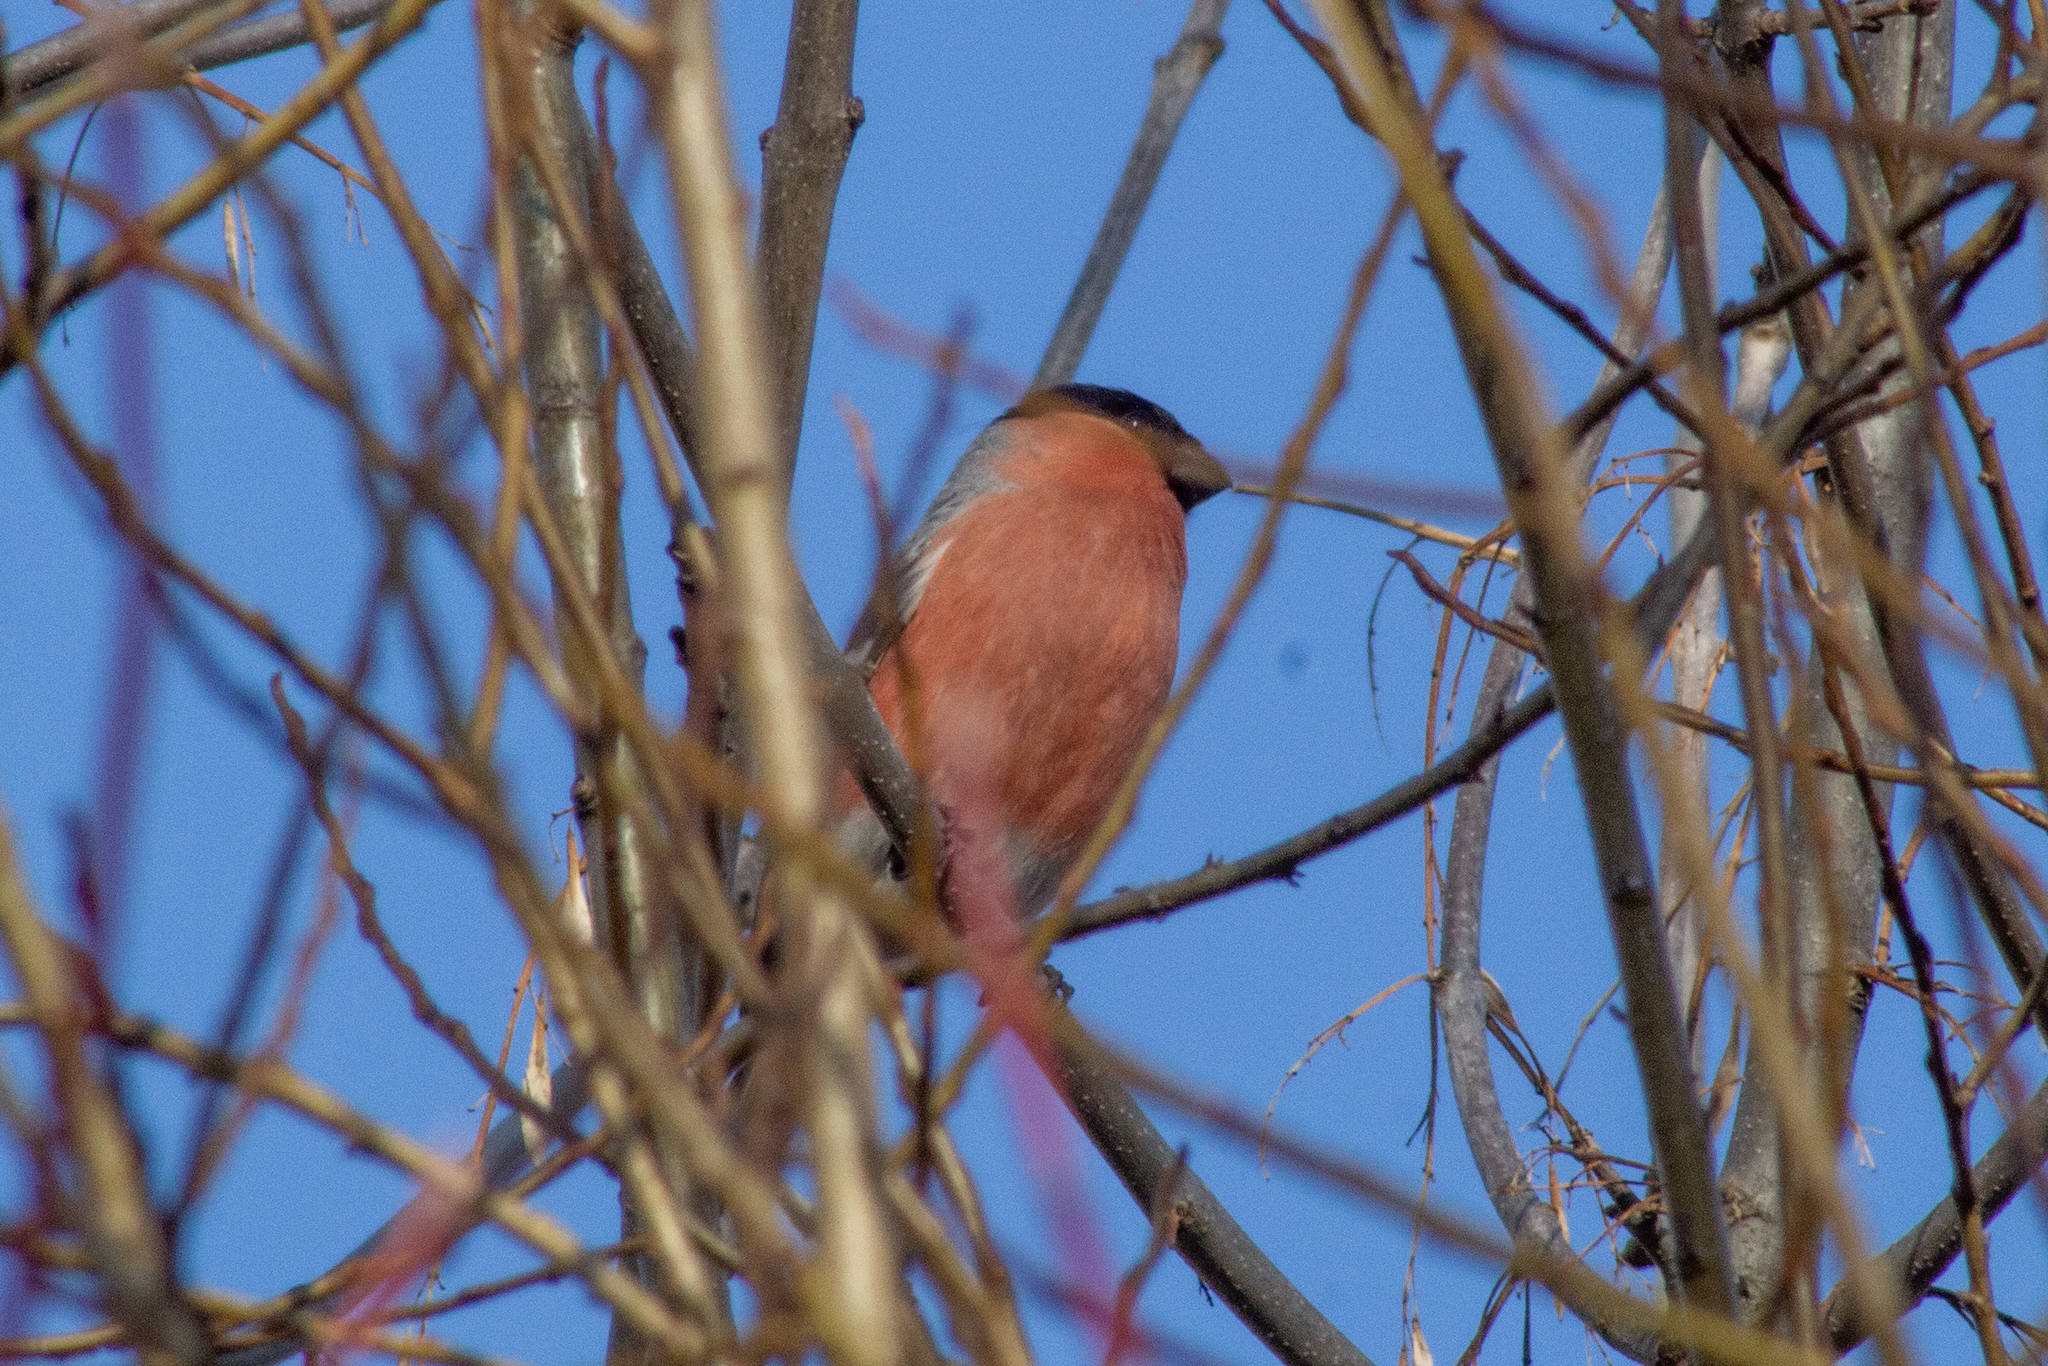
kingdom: Animalia
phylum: Chordata
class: Aves
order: Passeriformes
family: Fringillidae
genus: Pyrrhula
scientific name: Pyrrhula pyrrhula
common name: Eurasian bullfinch
